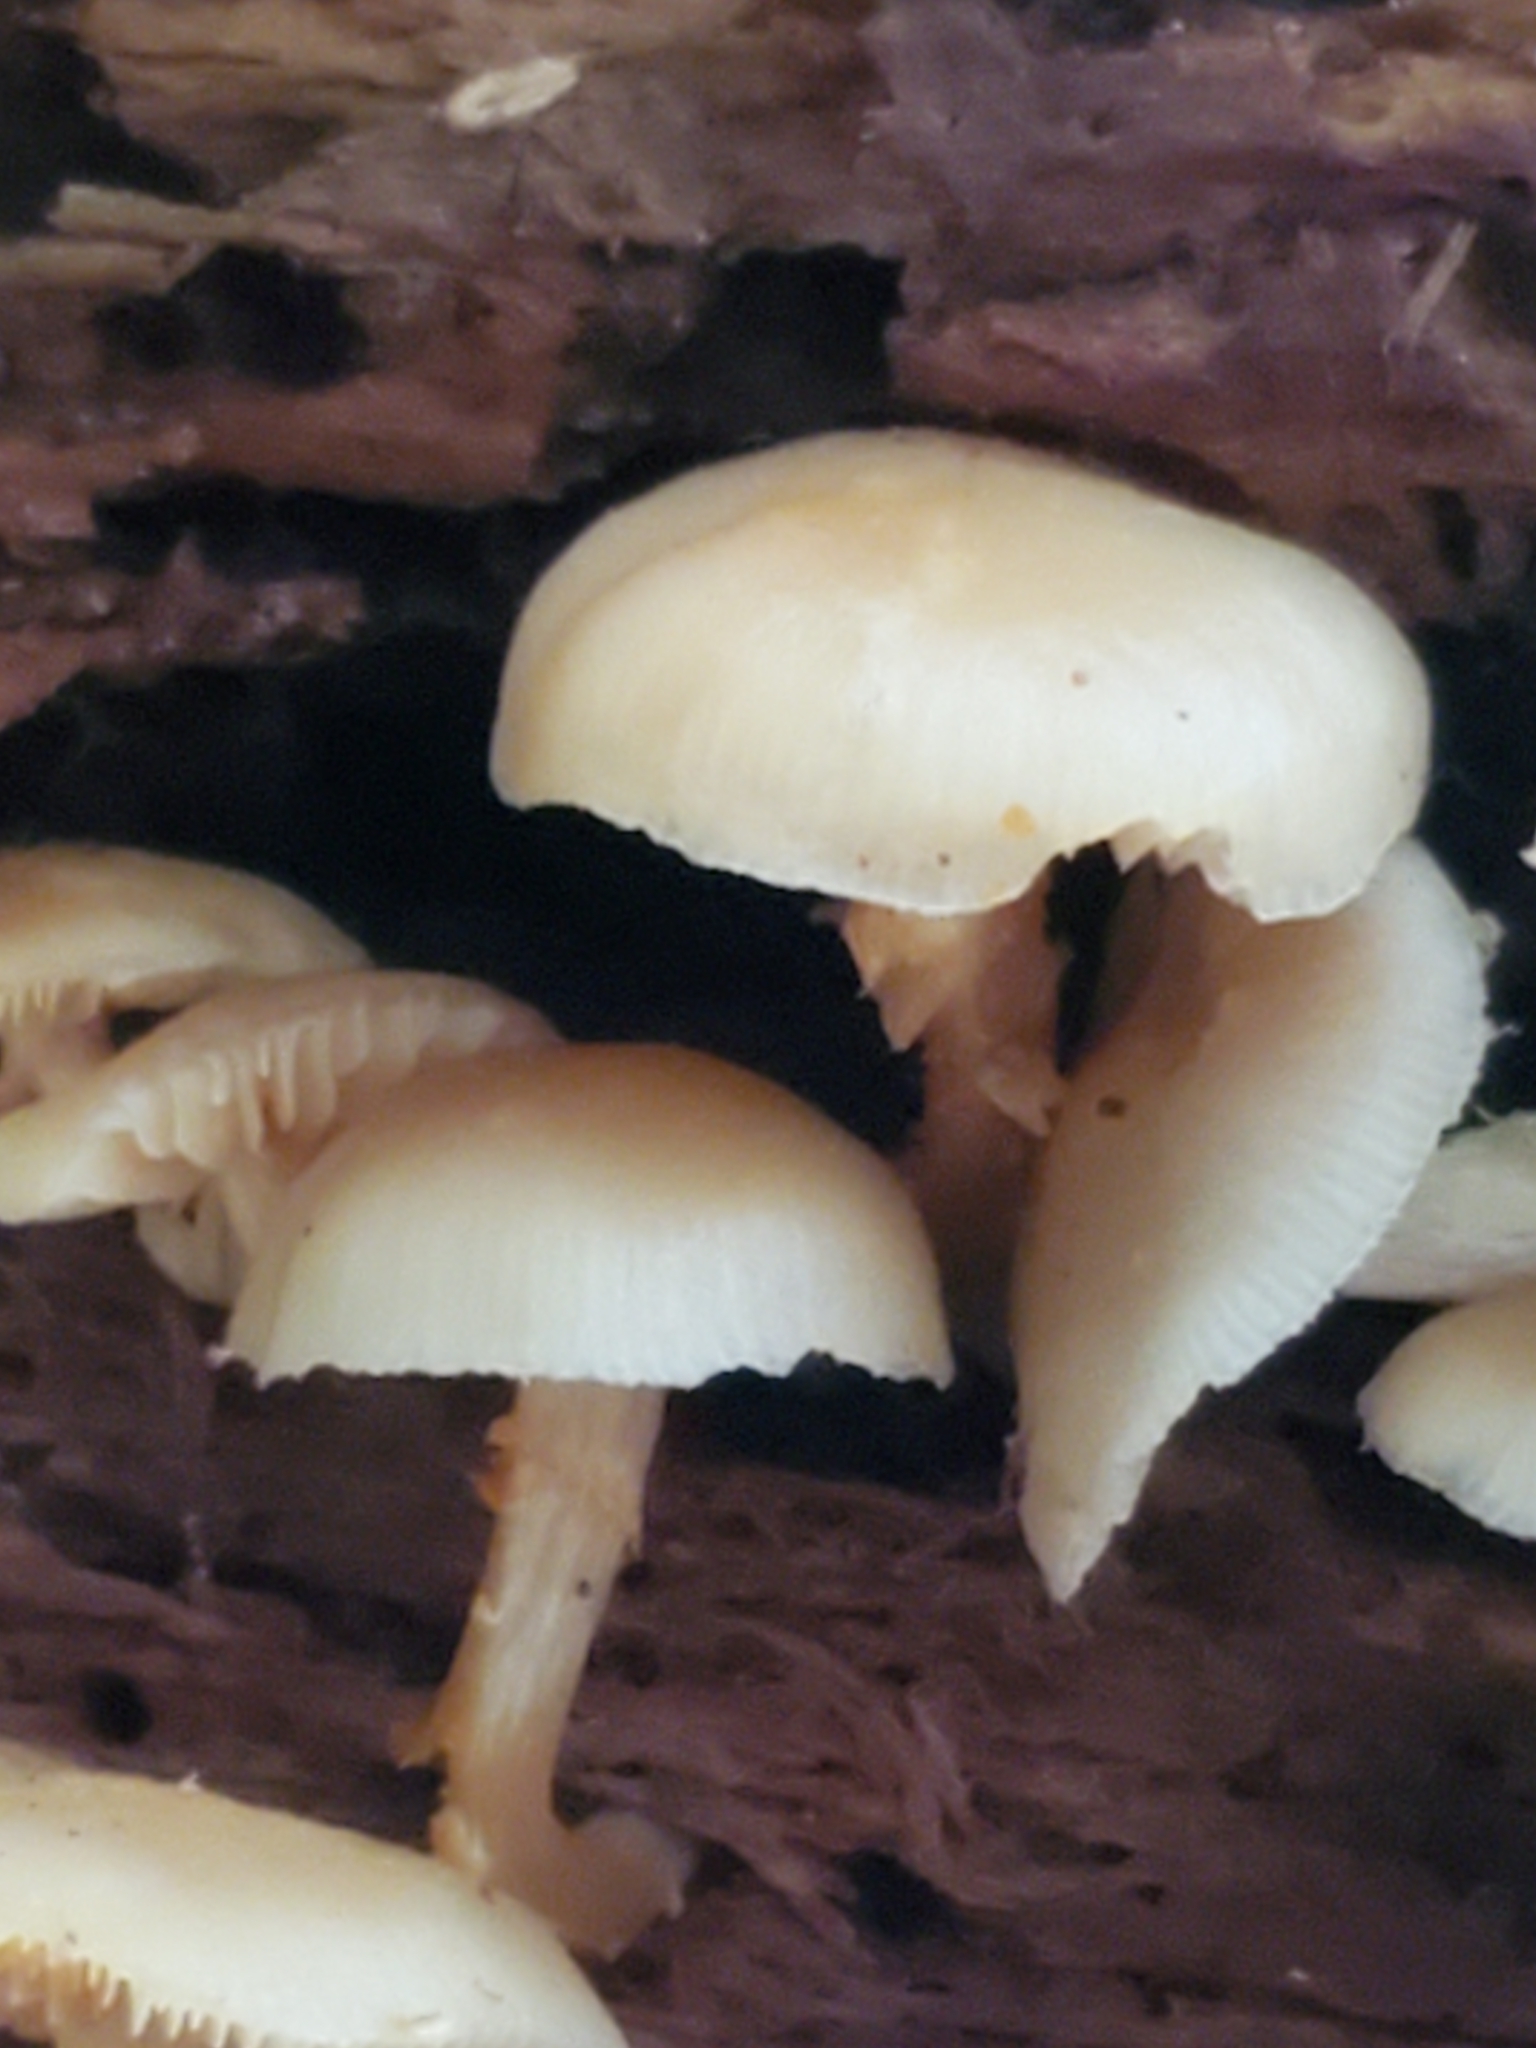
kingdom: Fungi
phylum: Basidiomycota
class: Agaricomycetes
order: Agaricales
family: Strophariaceae
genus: Kuehneromyces
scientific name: Kuehneromyces marginellus
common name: Sheathed woodtuft
